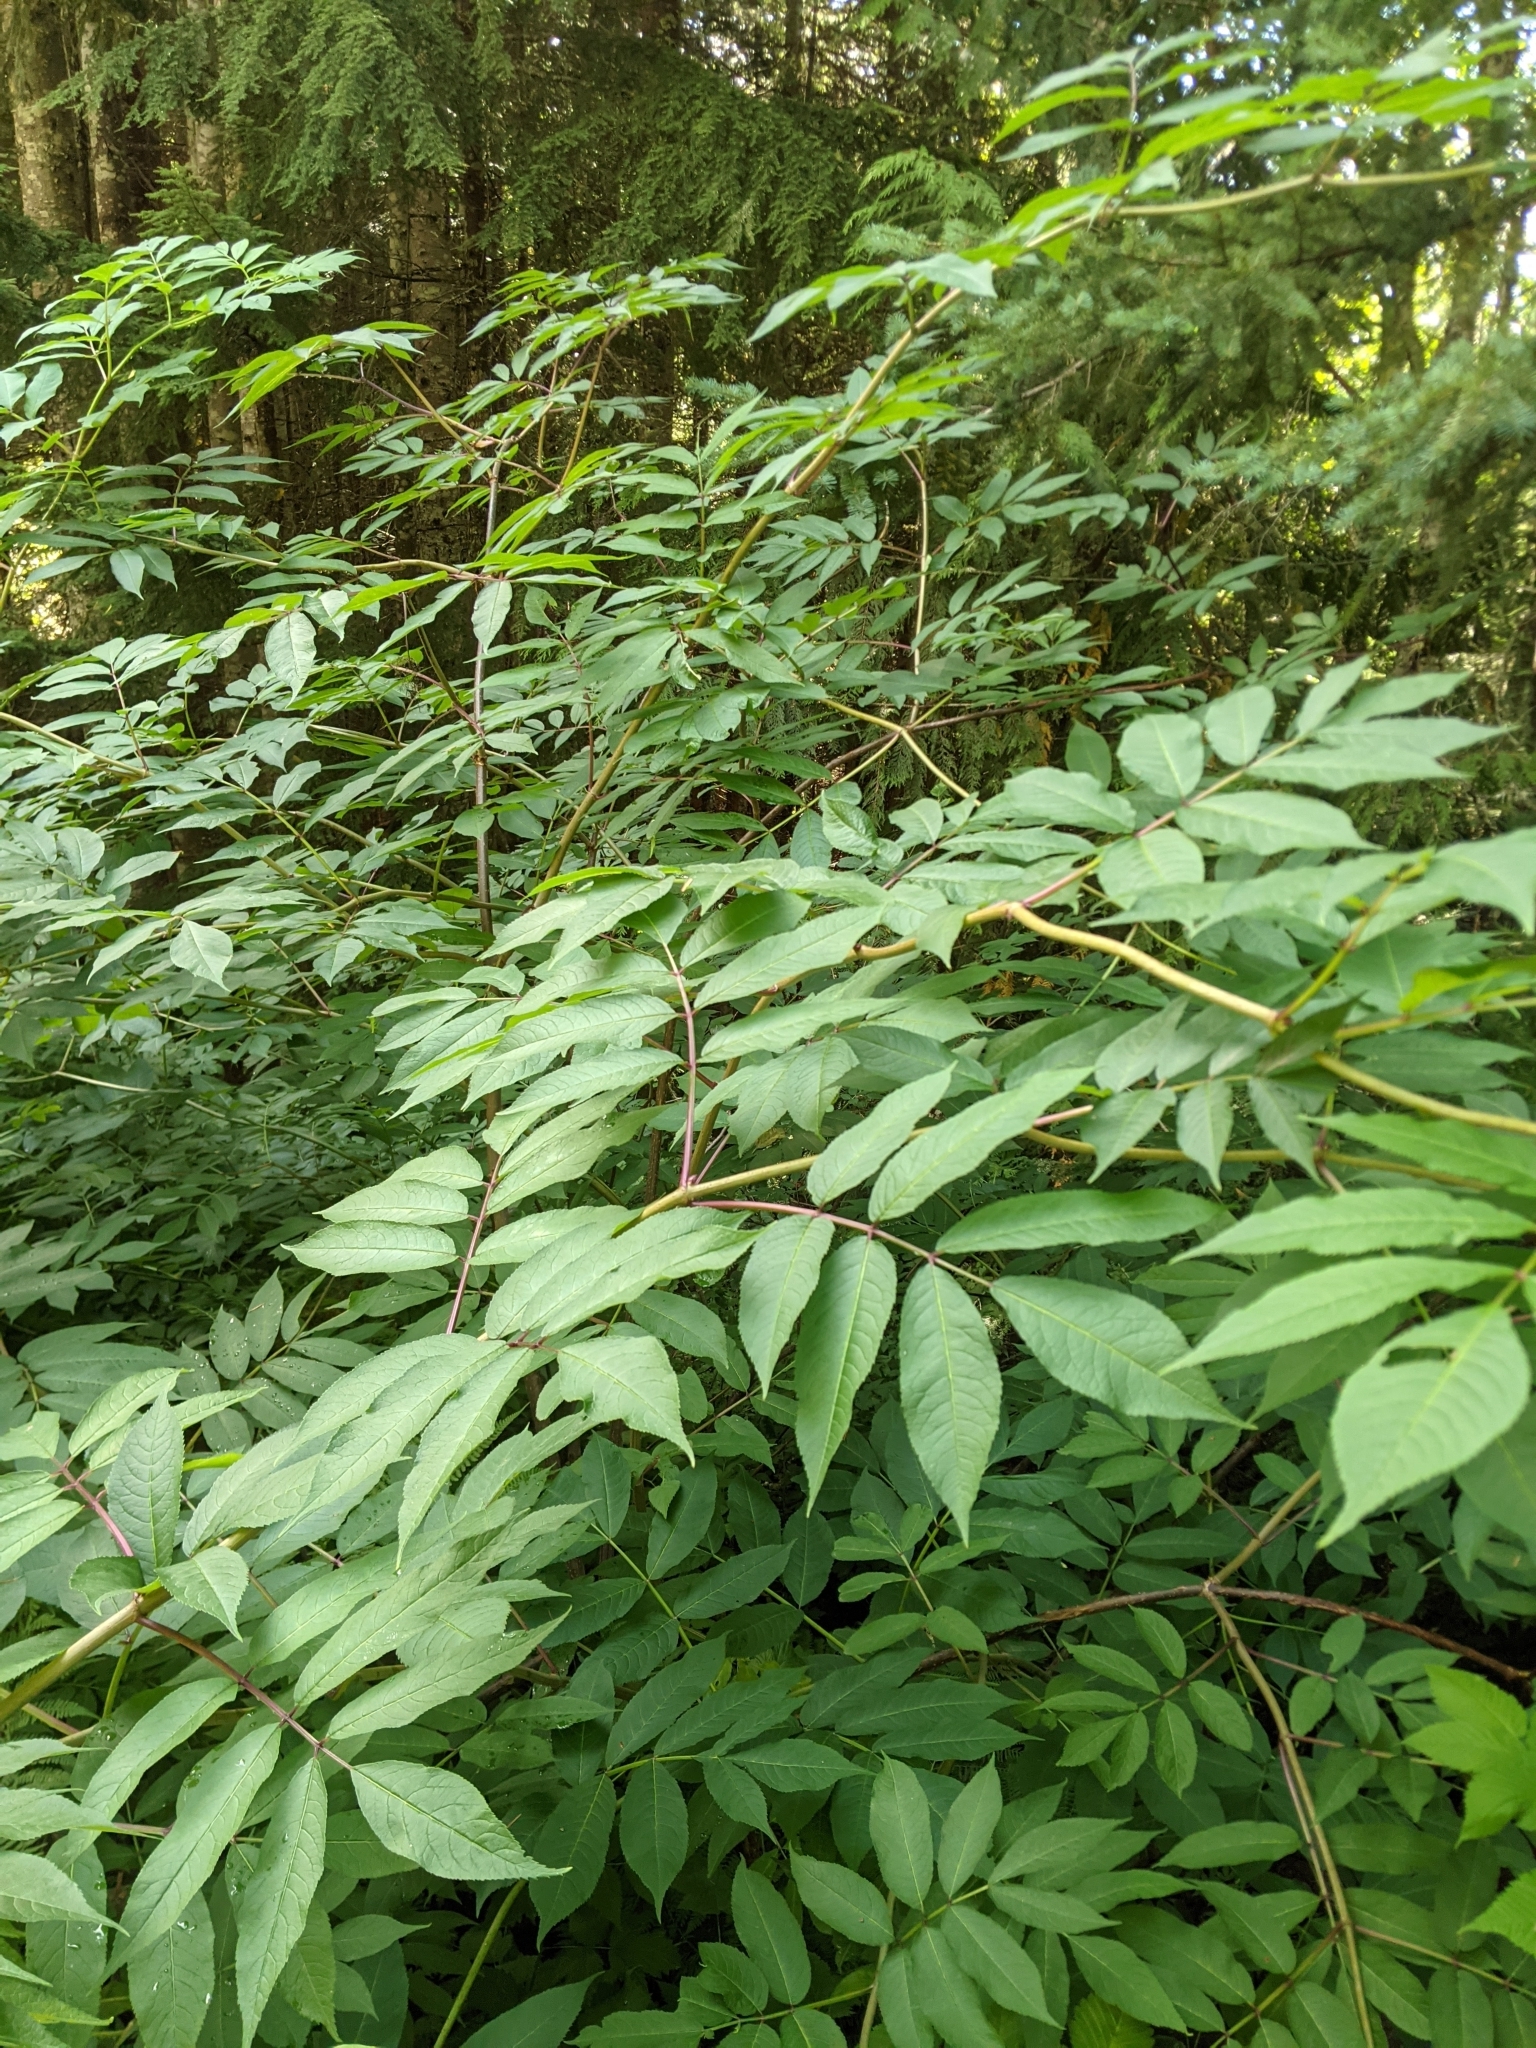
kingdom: Plantae
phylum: Tracheophyta
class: Magnoliopsida
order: Dipsacales
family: Viburnaceae
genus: Sambucus
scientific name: Sambucus racemosa
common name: Red-berried elder
